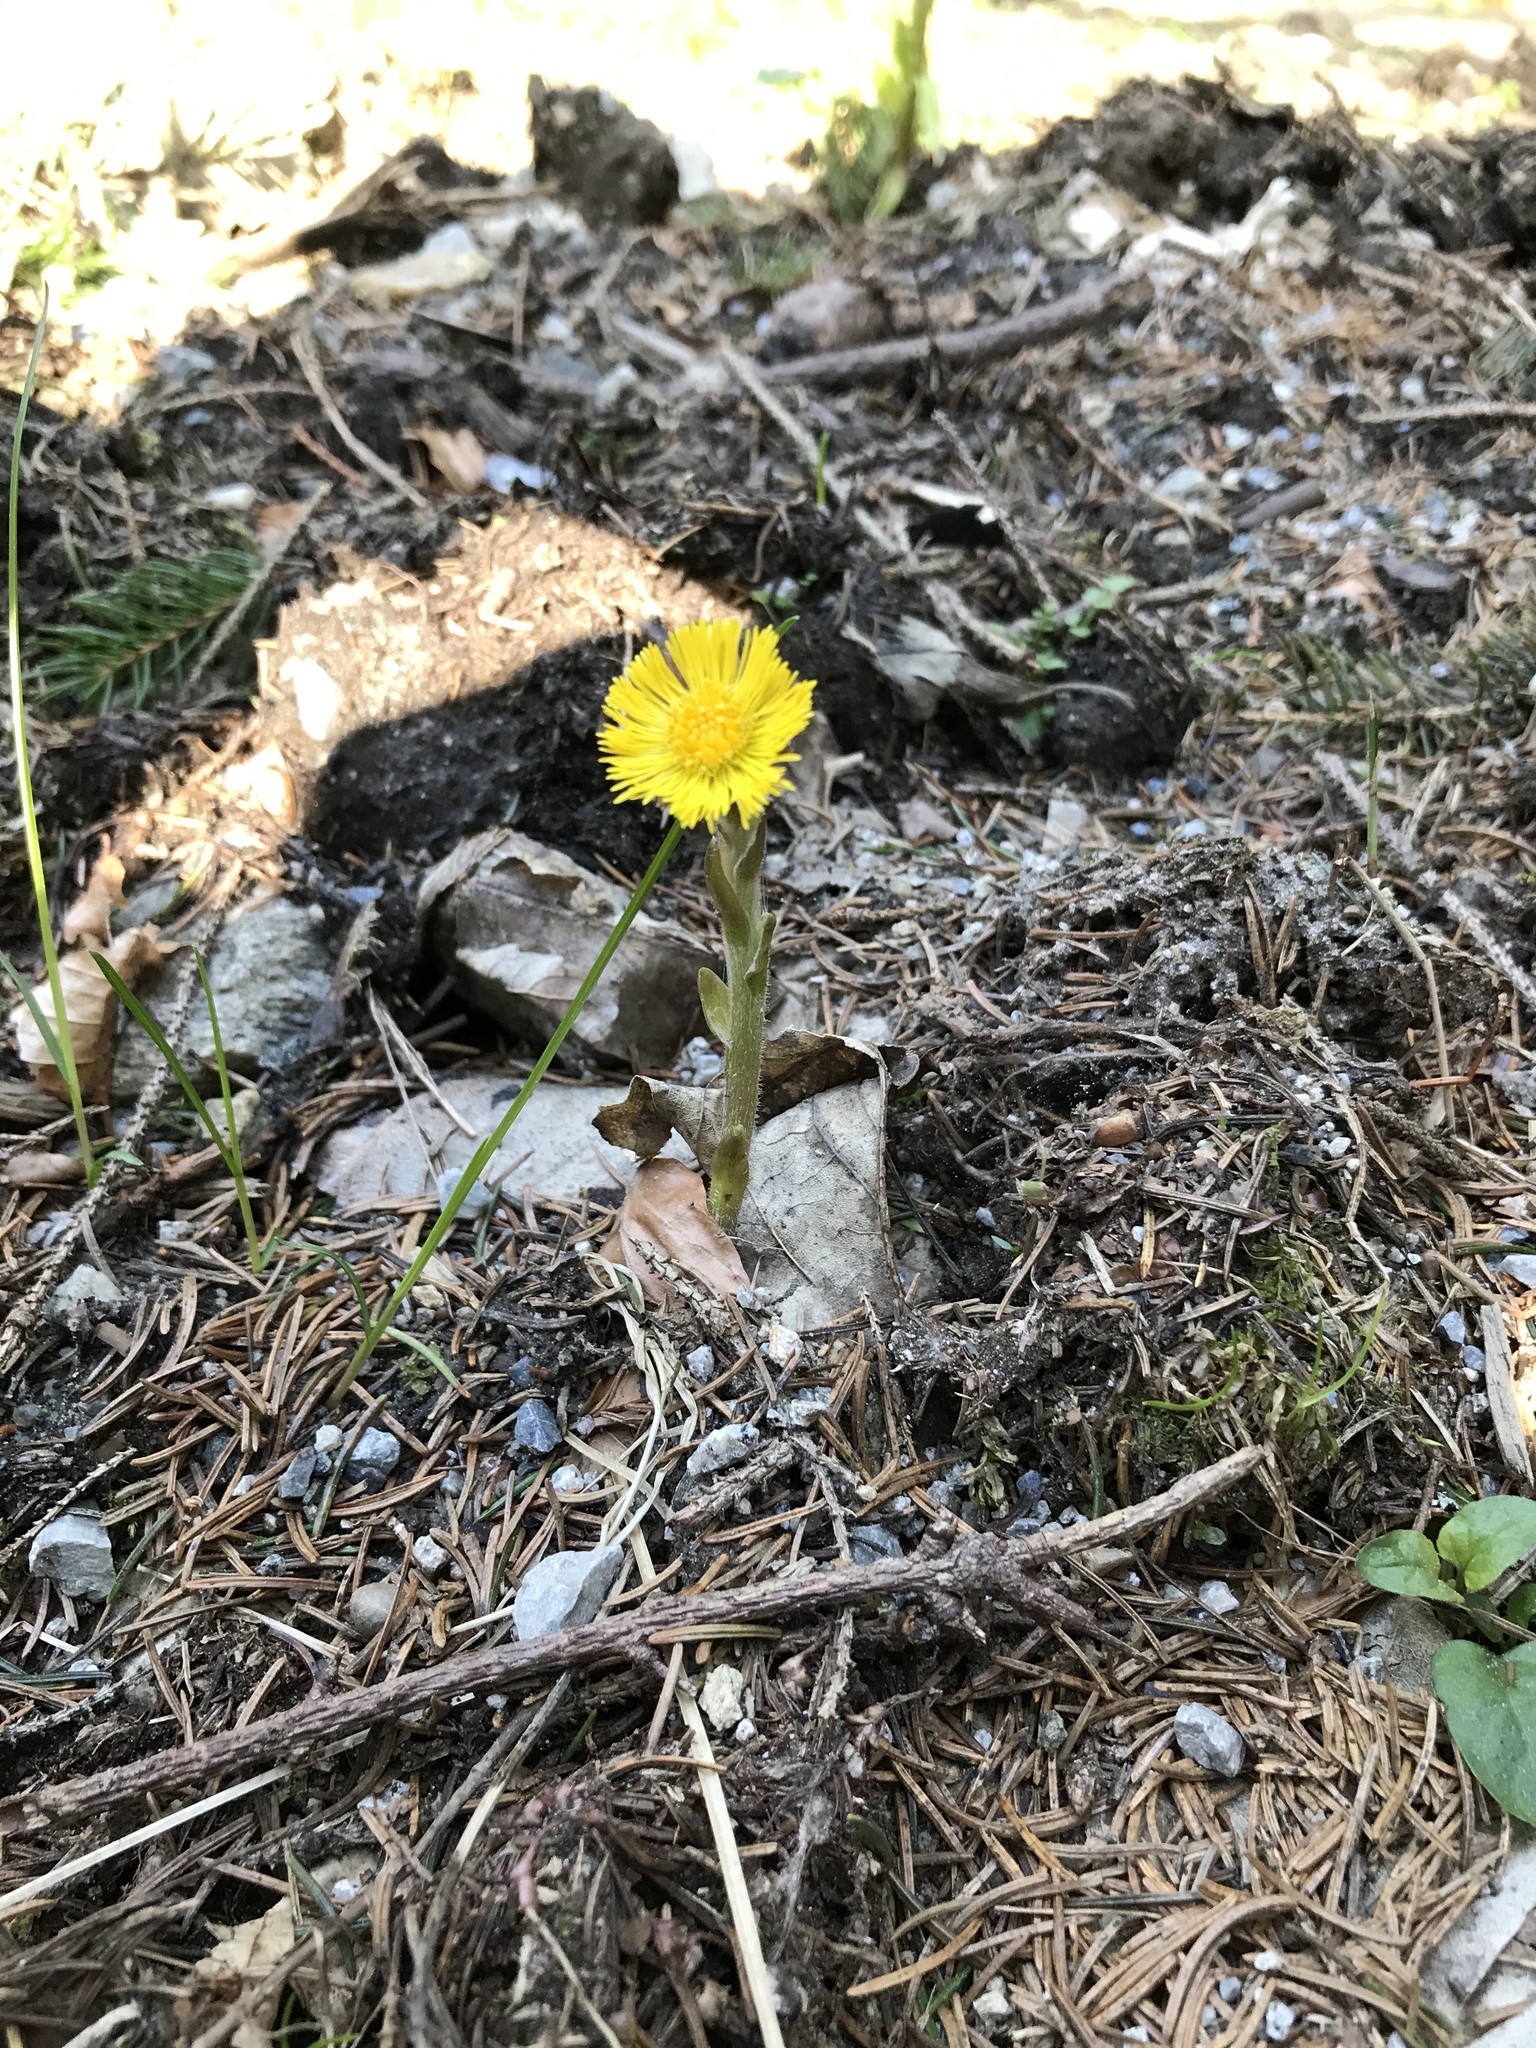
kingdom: Plantae
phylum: Tracheophyta
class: Magnoliopsida
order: Asterales
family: Asteraceae
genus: Tussilago
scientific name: Tussilago farfara
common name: Coltsfoot
